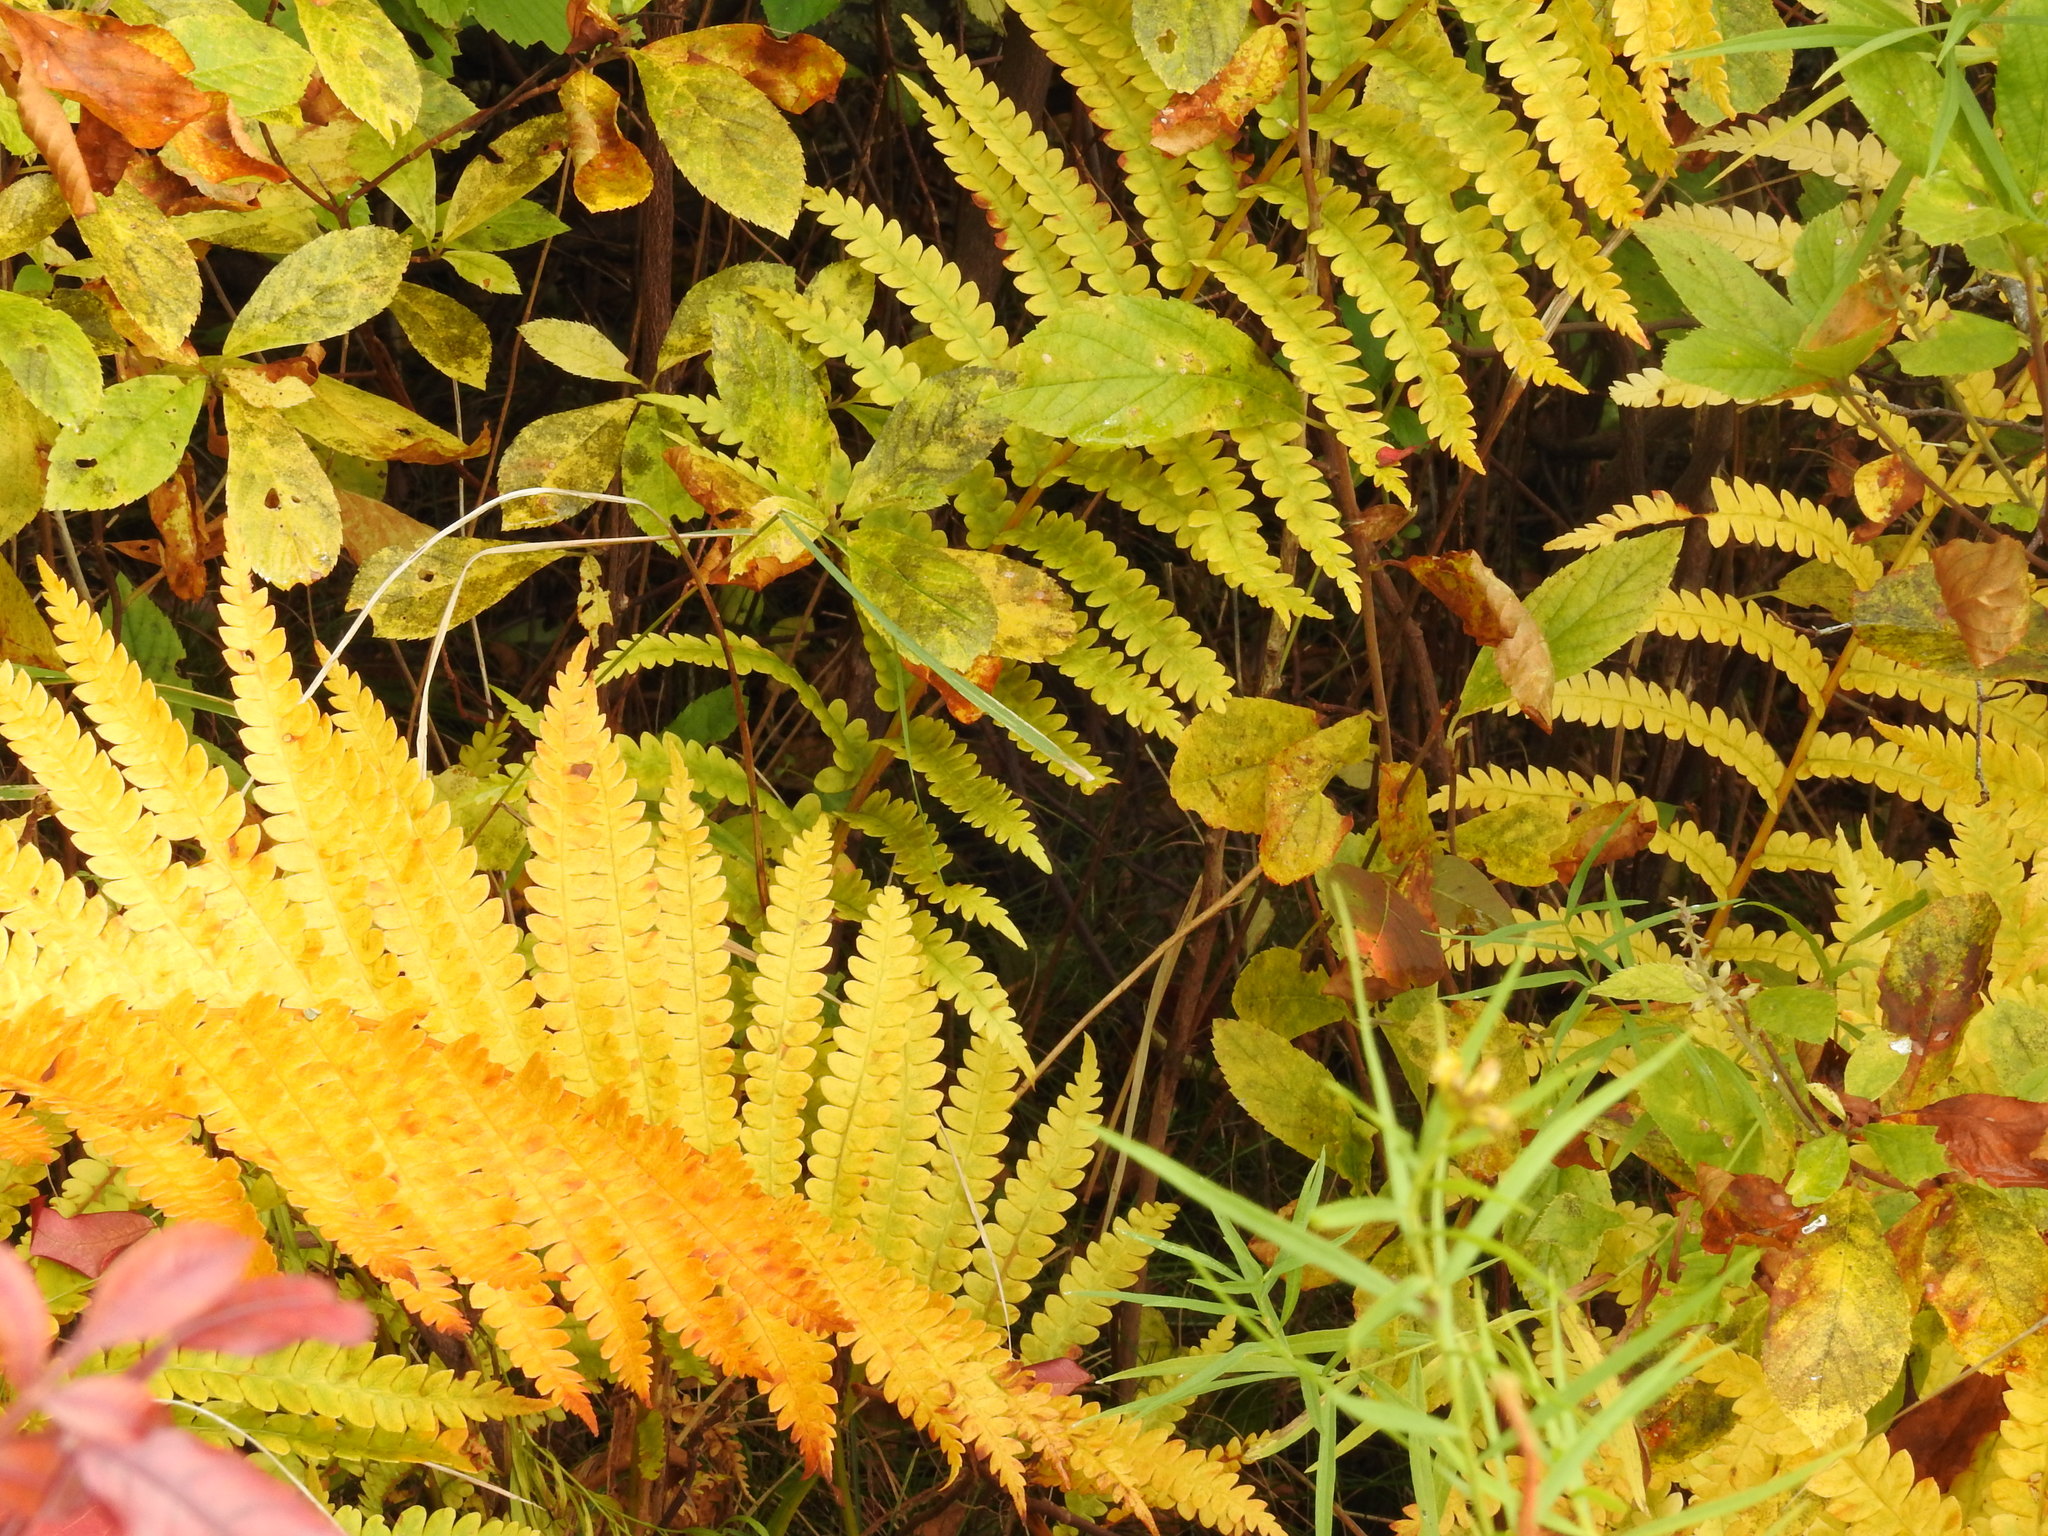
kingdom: Plantae
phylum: Tracheophyta
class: Polypodiopsida
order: Osmundales
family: Osmundaceae
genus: Osmundastrum
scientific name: Osmundastrum cinnamomeum
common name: Cinnamon fern
